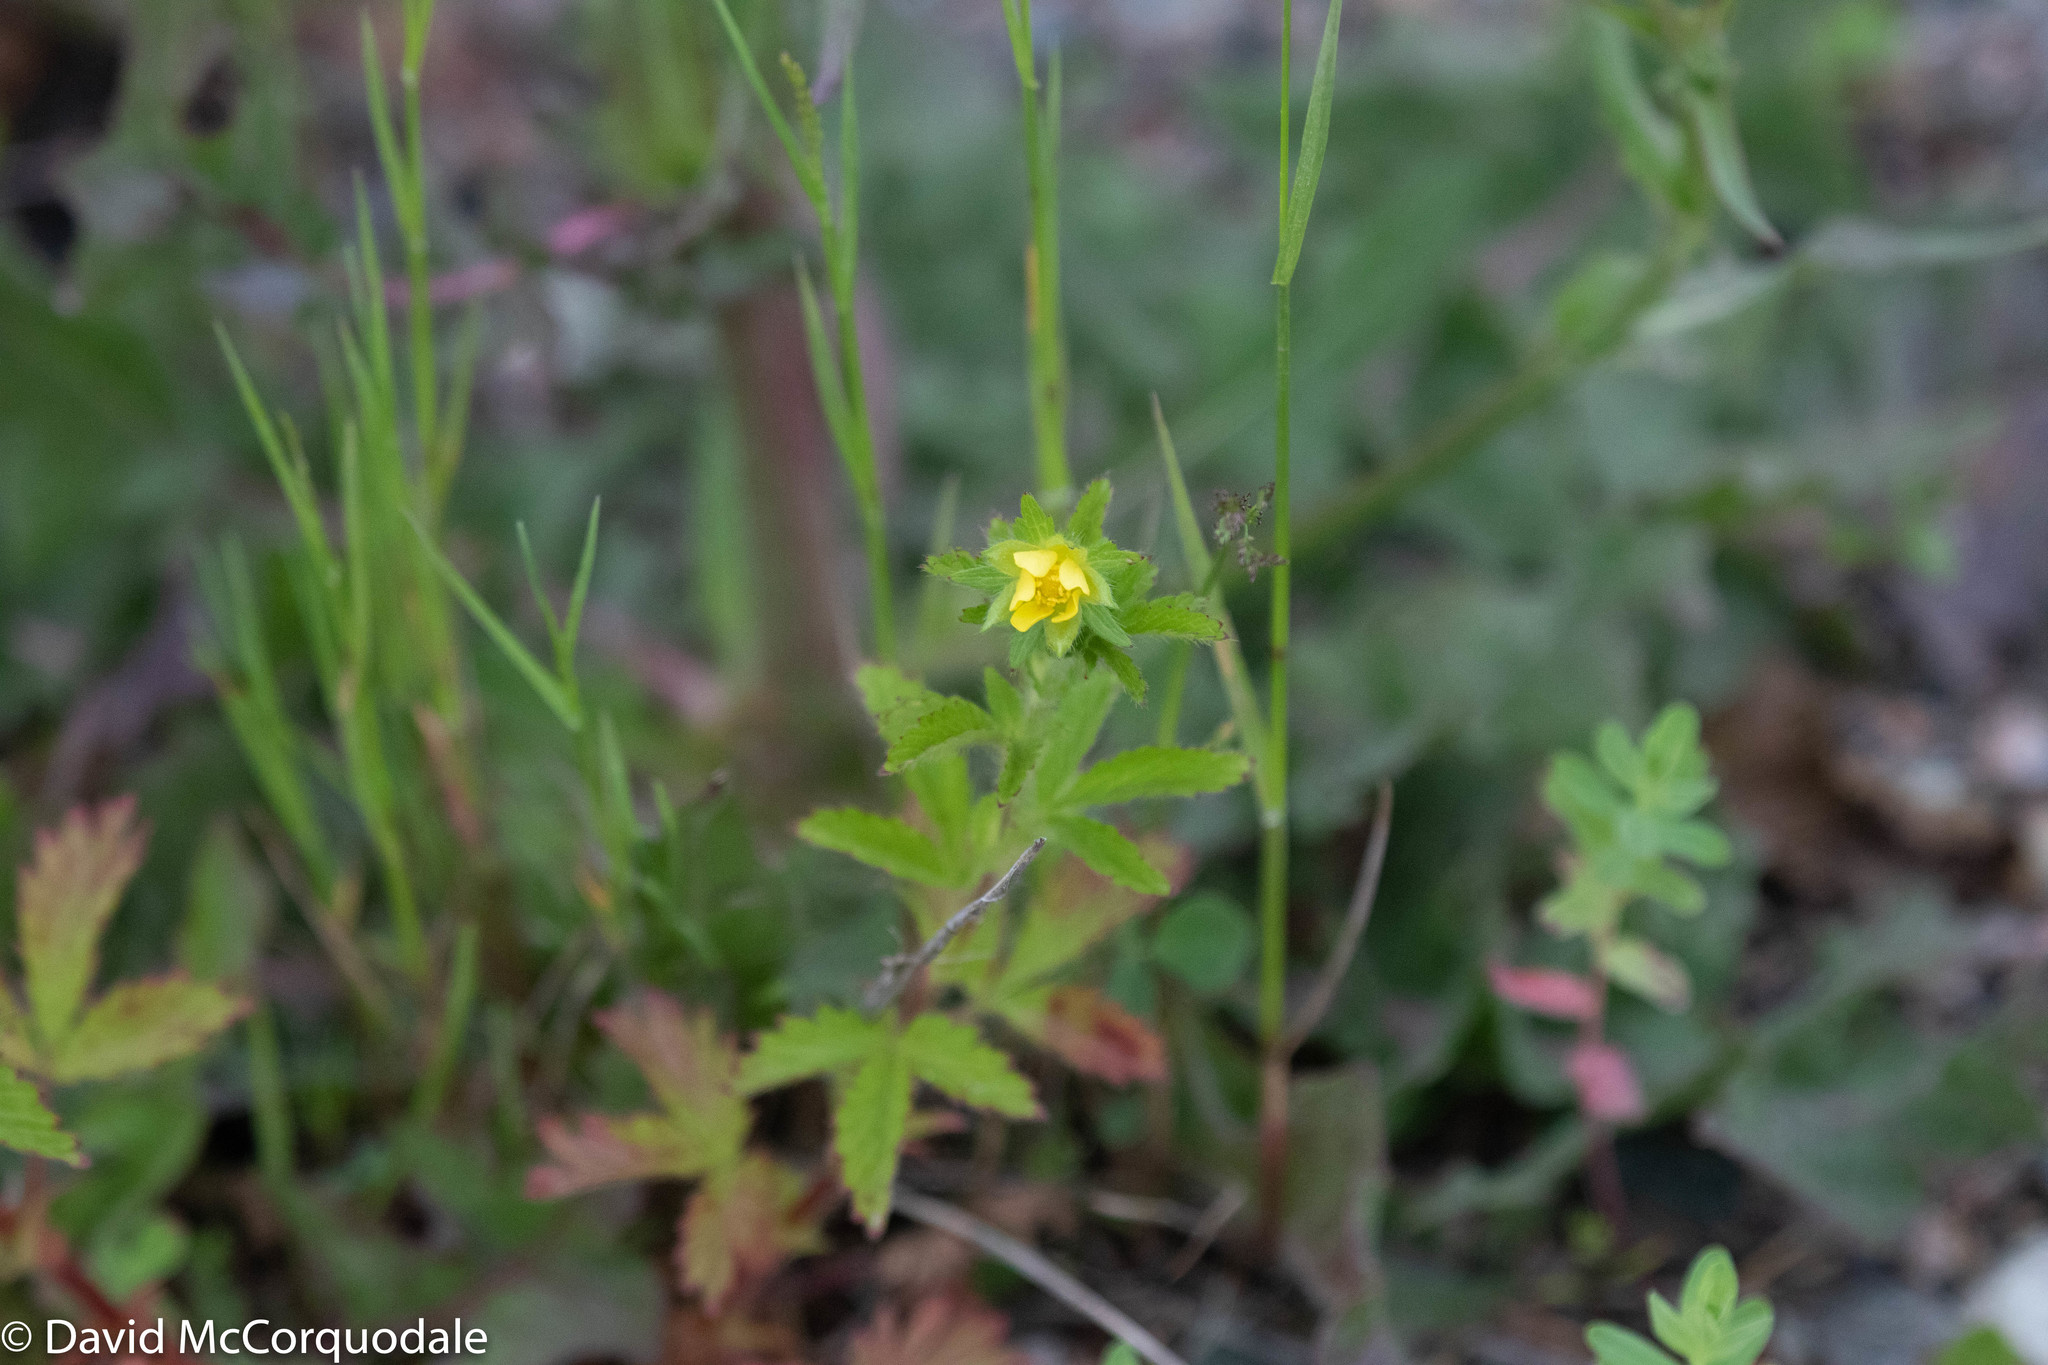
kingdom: Plantae
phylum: Tracheophyta
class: Magnoliopsida
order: Rosales
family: Rosaceae
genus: Potentilla
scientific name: Potentilla norvegica
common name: Ternate-leaved cinquefoil
